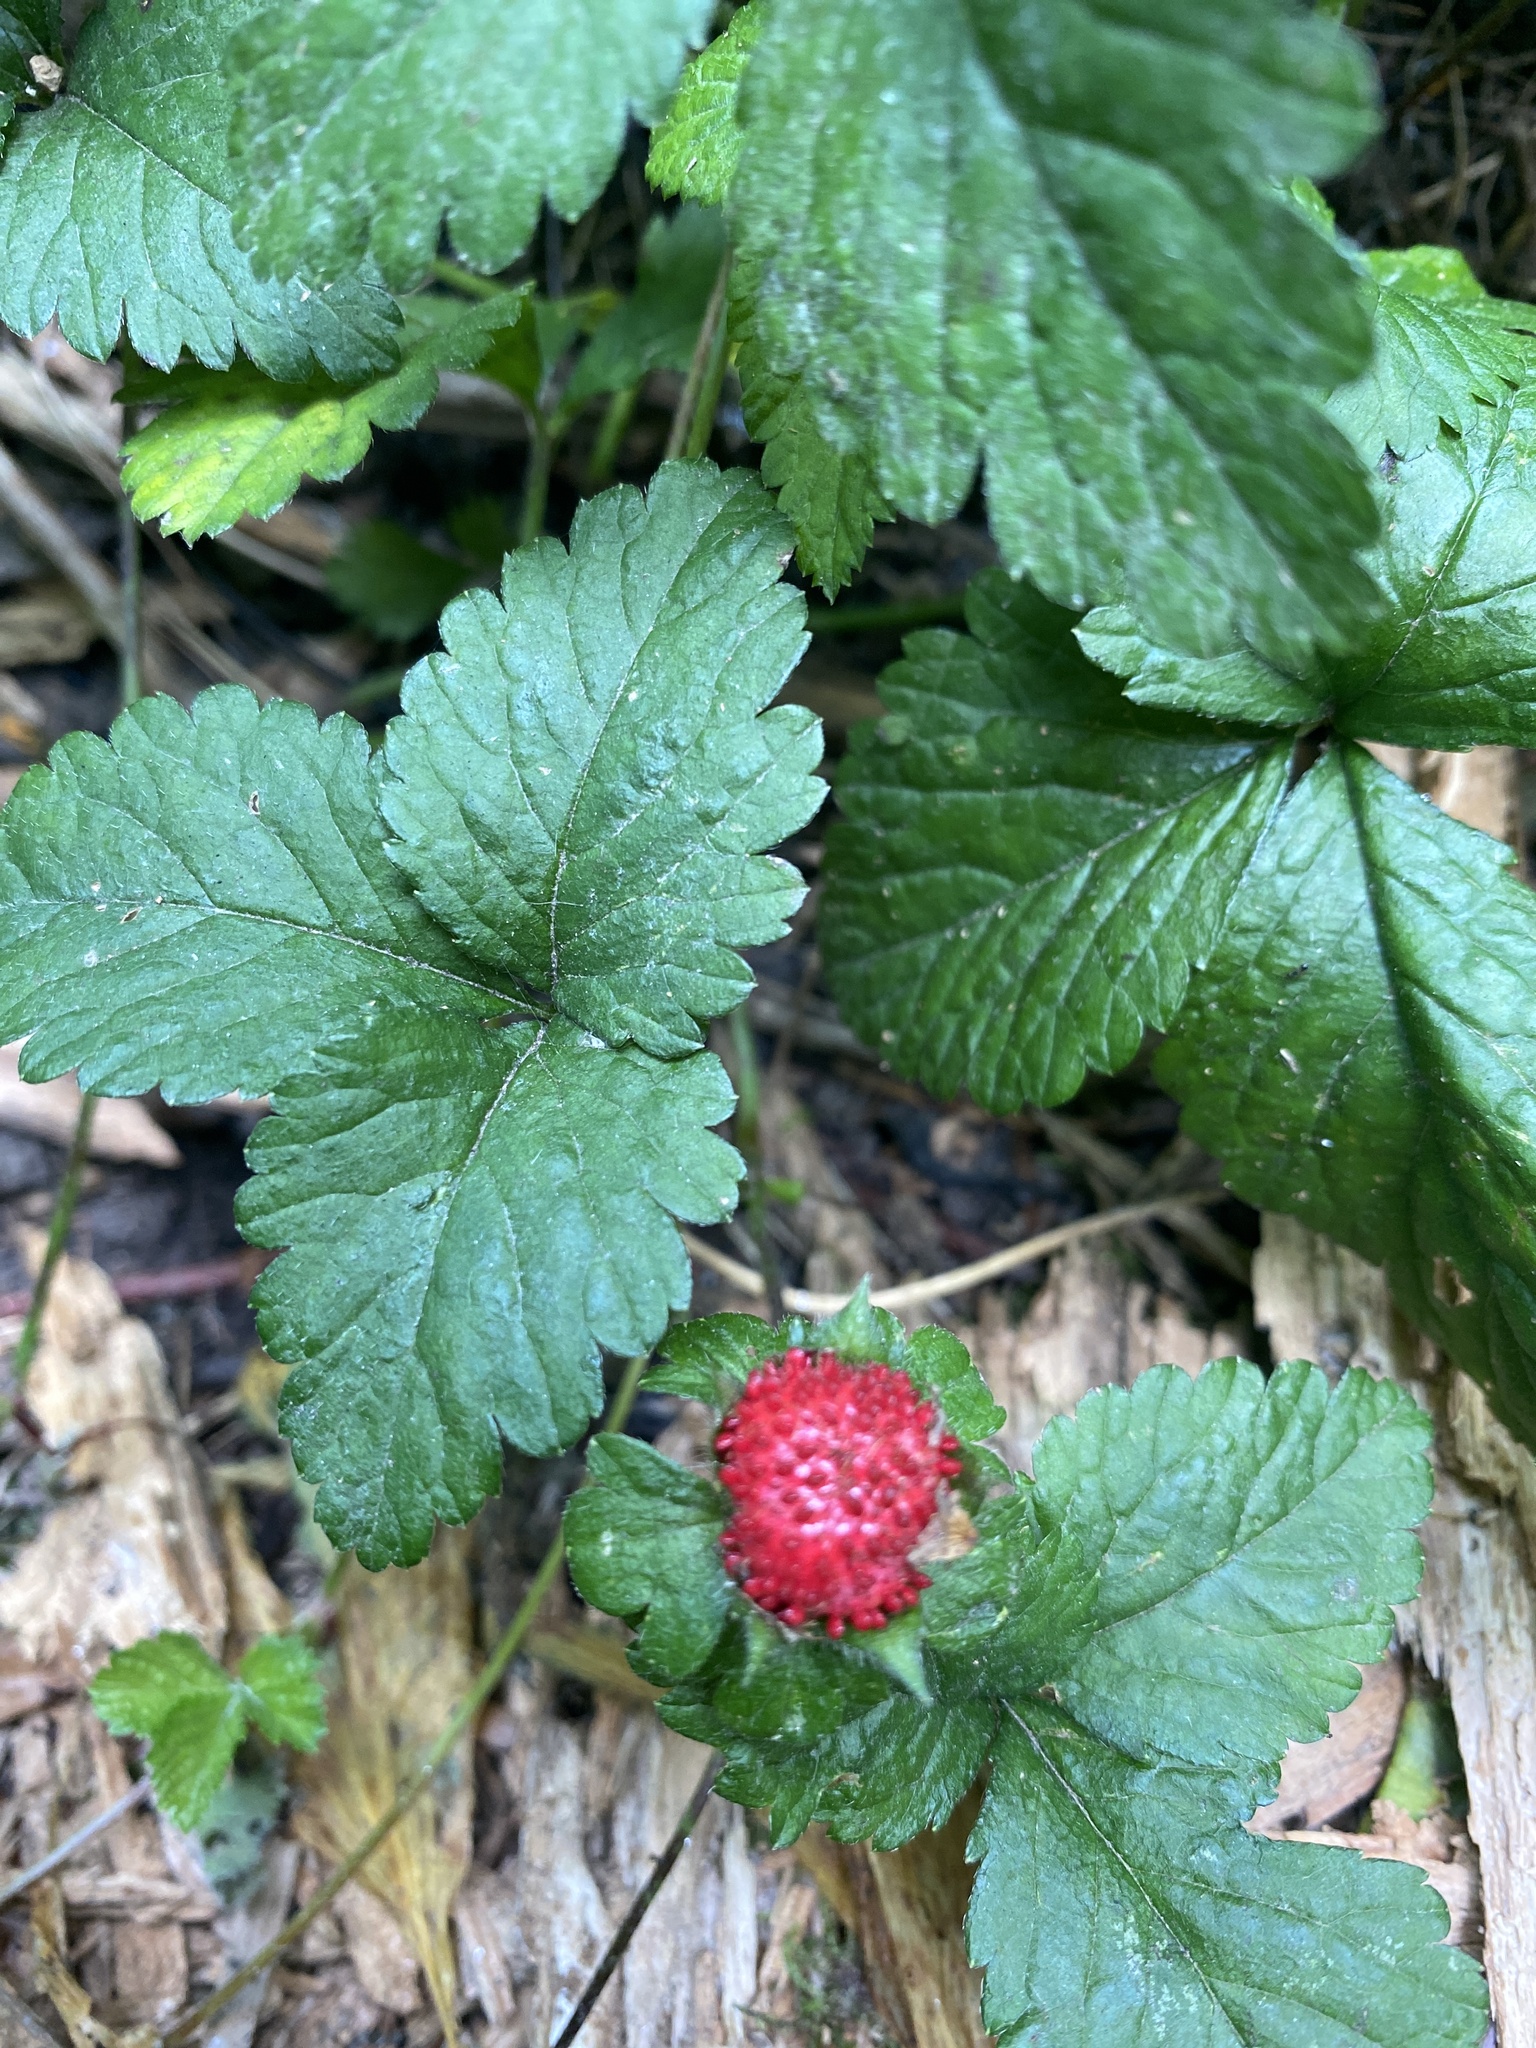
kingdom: Plantae
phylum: Tracheophyta
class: Magnoliopsida
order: Rosales
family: Rosaceae
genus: Potentilla
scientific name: Potentilla indica
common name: Yellow-flowered strawberry
